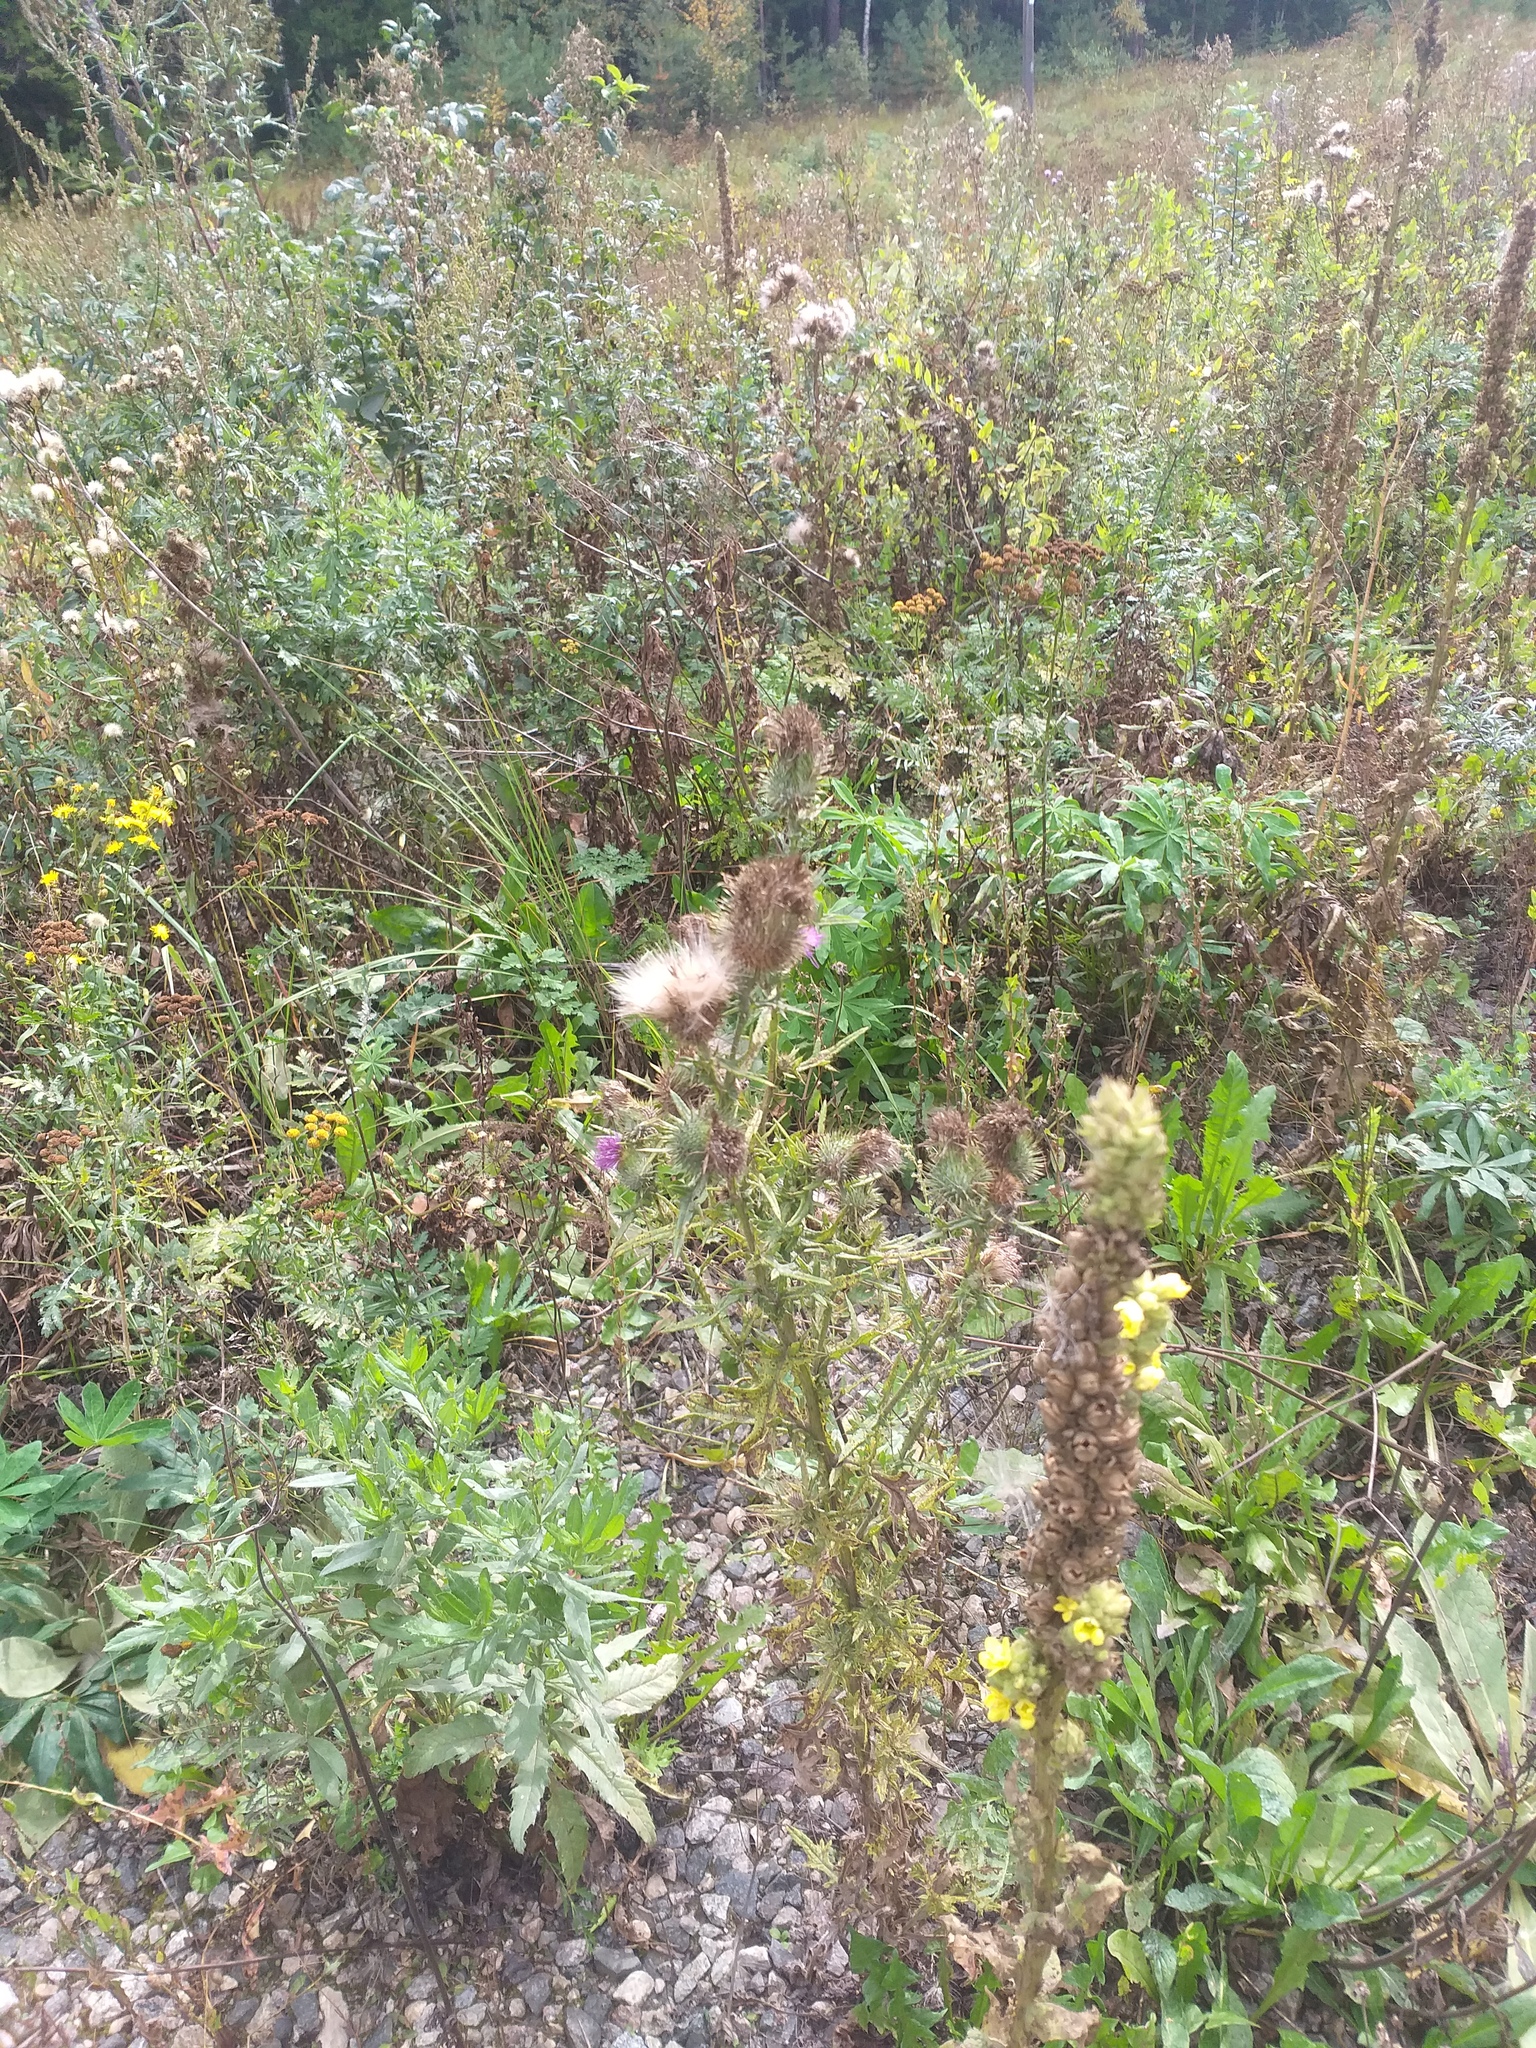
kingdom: Plantae
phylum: Tracheophyta
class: Magnoliopsida
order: Asterales
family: Asteraceae
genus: Cirsium
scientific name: Cirsium vulgare
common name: Bull thistle
